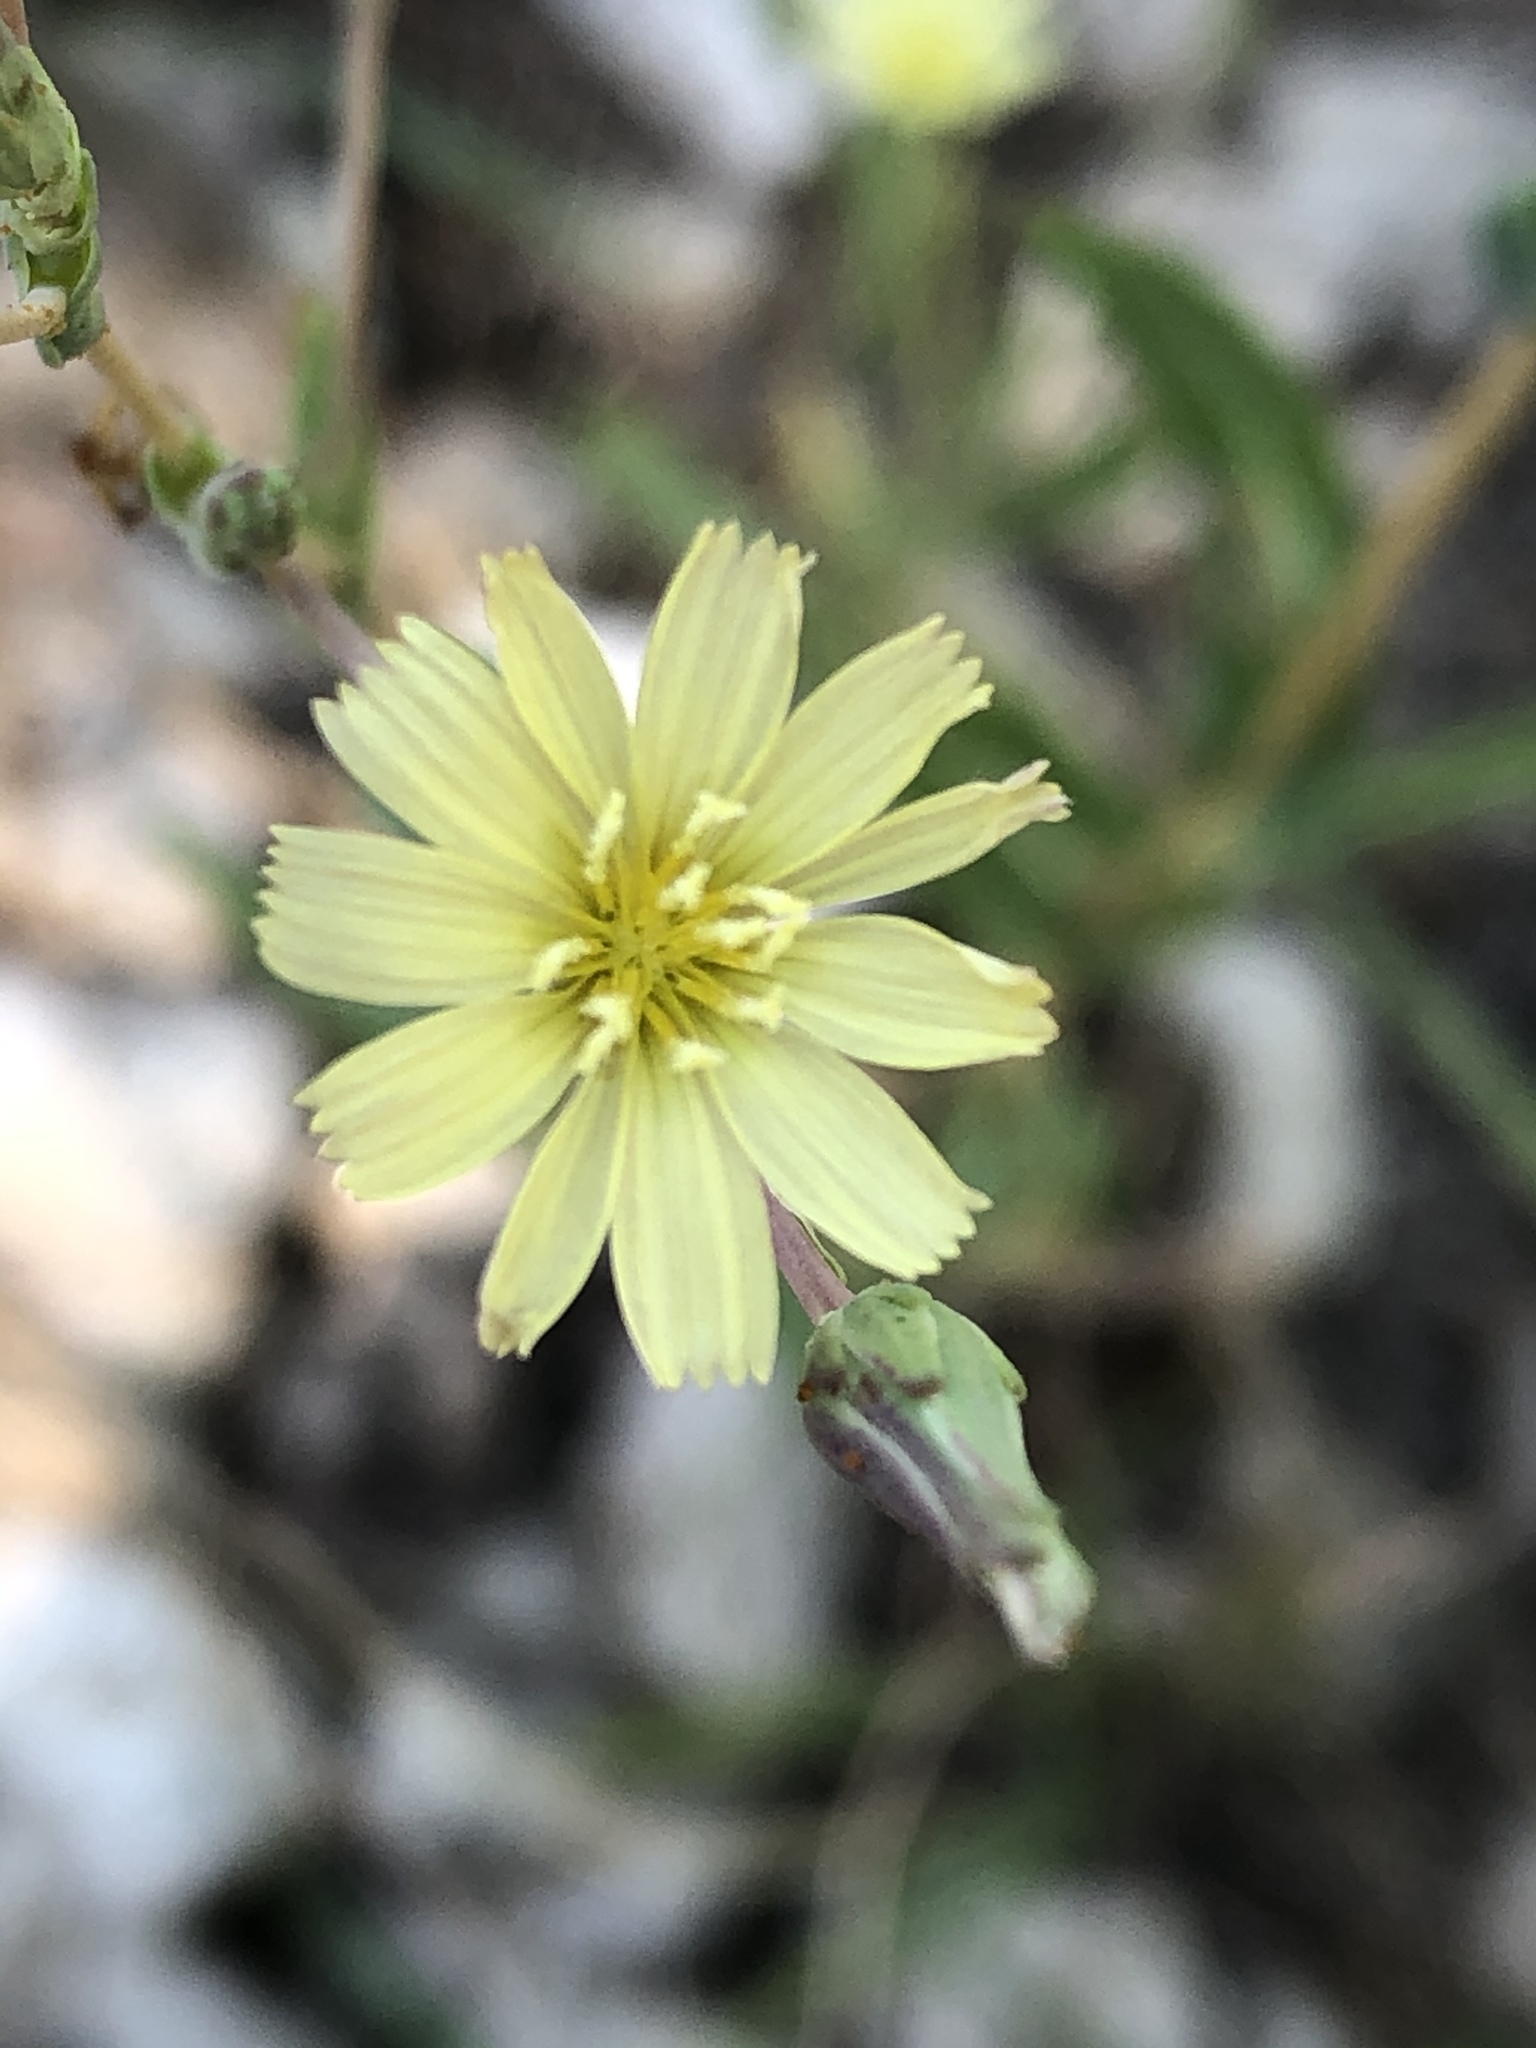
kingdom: Plantae
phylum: Tracheophyta
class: Magnoliopsida
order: Asterales
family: Asteraceae
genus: Lactuca
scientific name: Lactuca serriola
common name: Prickly lettuce
